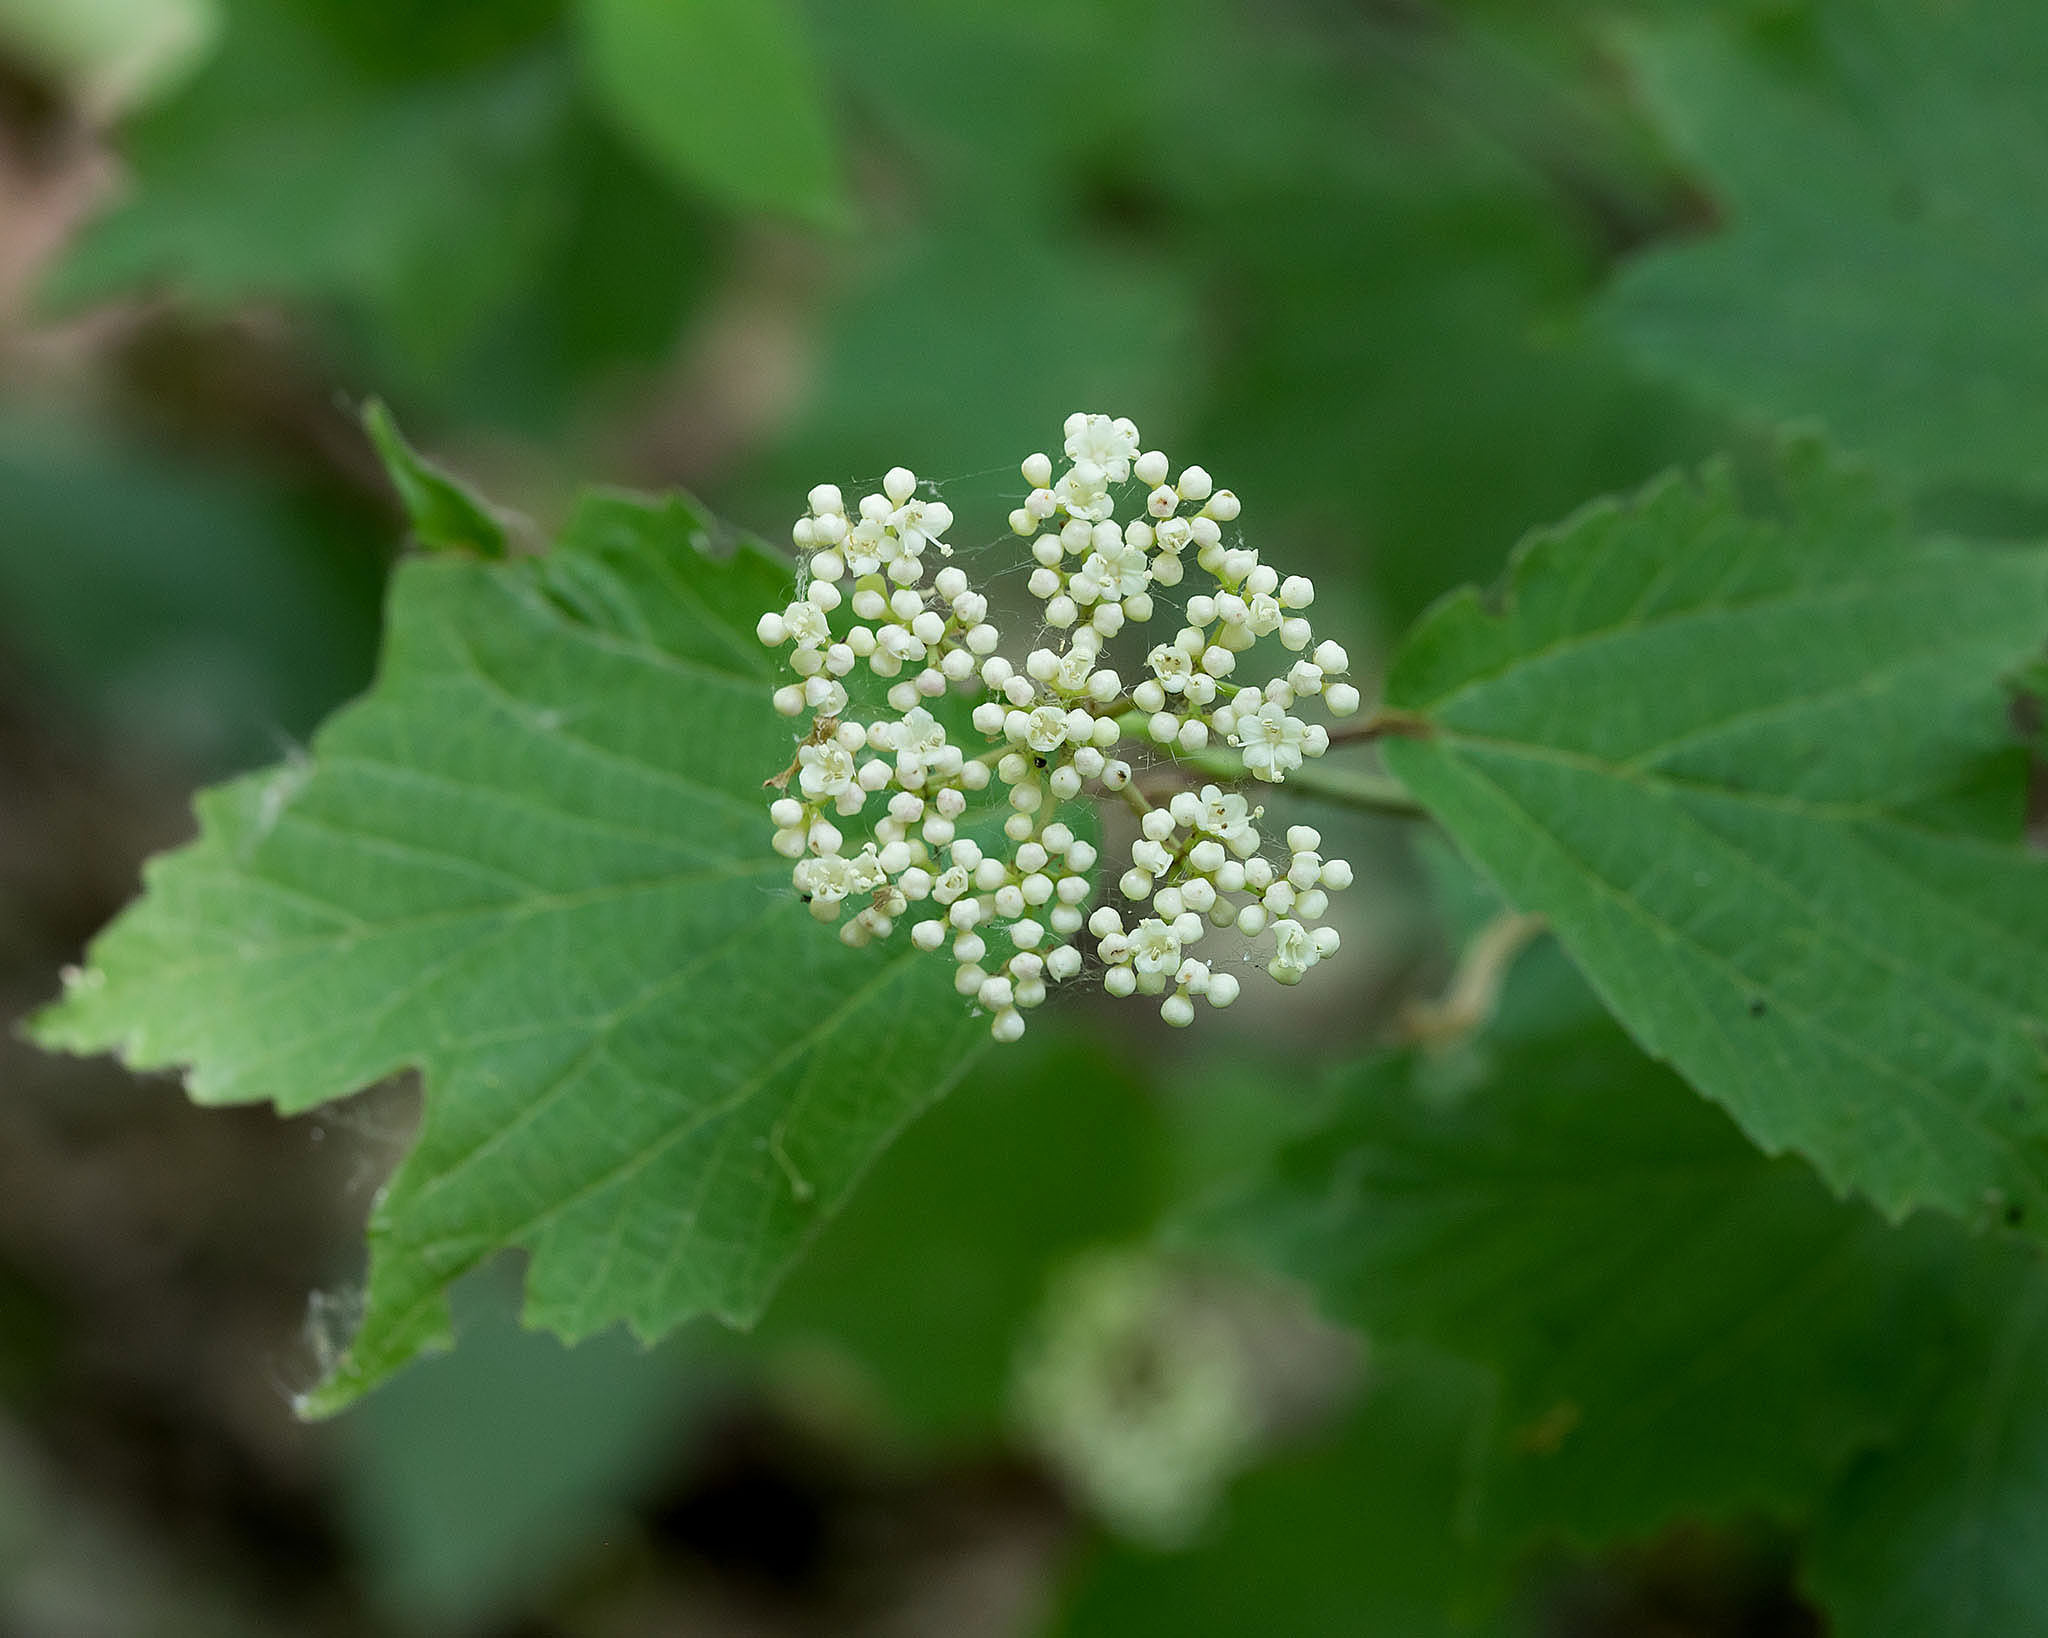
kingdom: Plantae
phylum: Tracheophyta
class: Magnoliopsida
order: Dipsacales
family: Viburnaceae
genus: Viburnum
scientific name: Viburnum acerifolium
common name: Dockmackie
